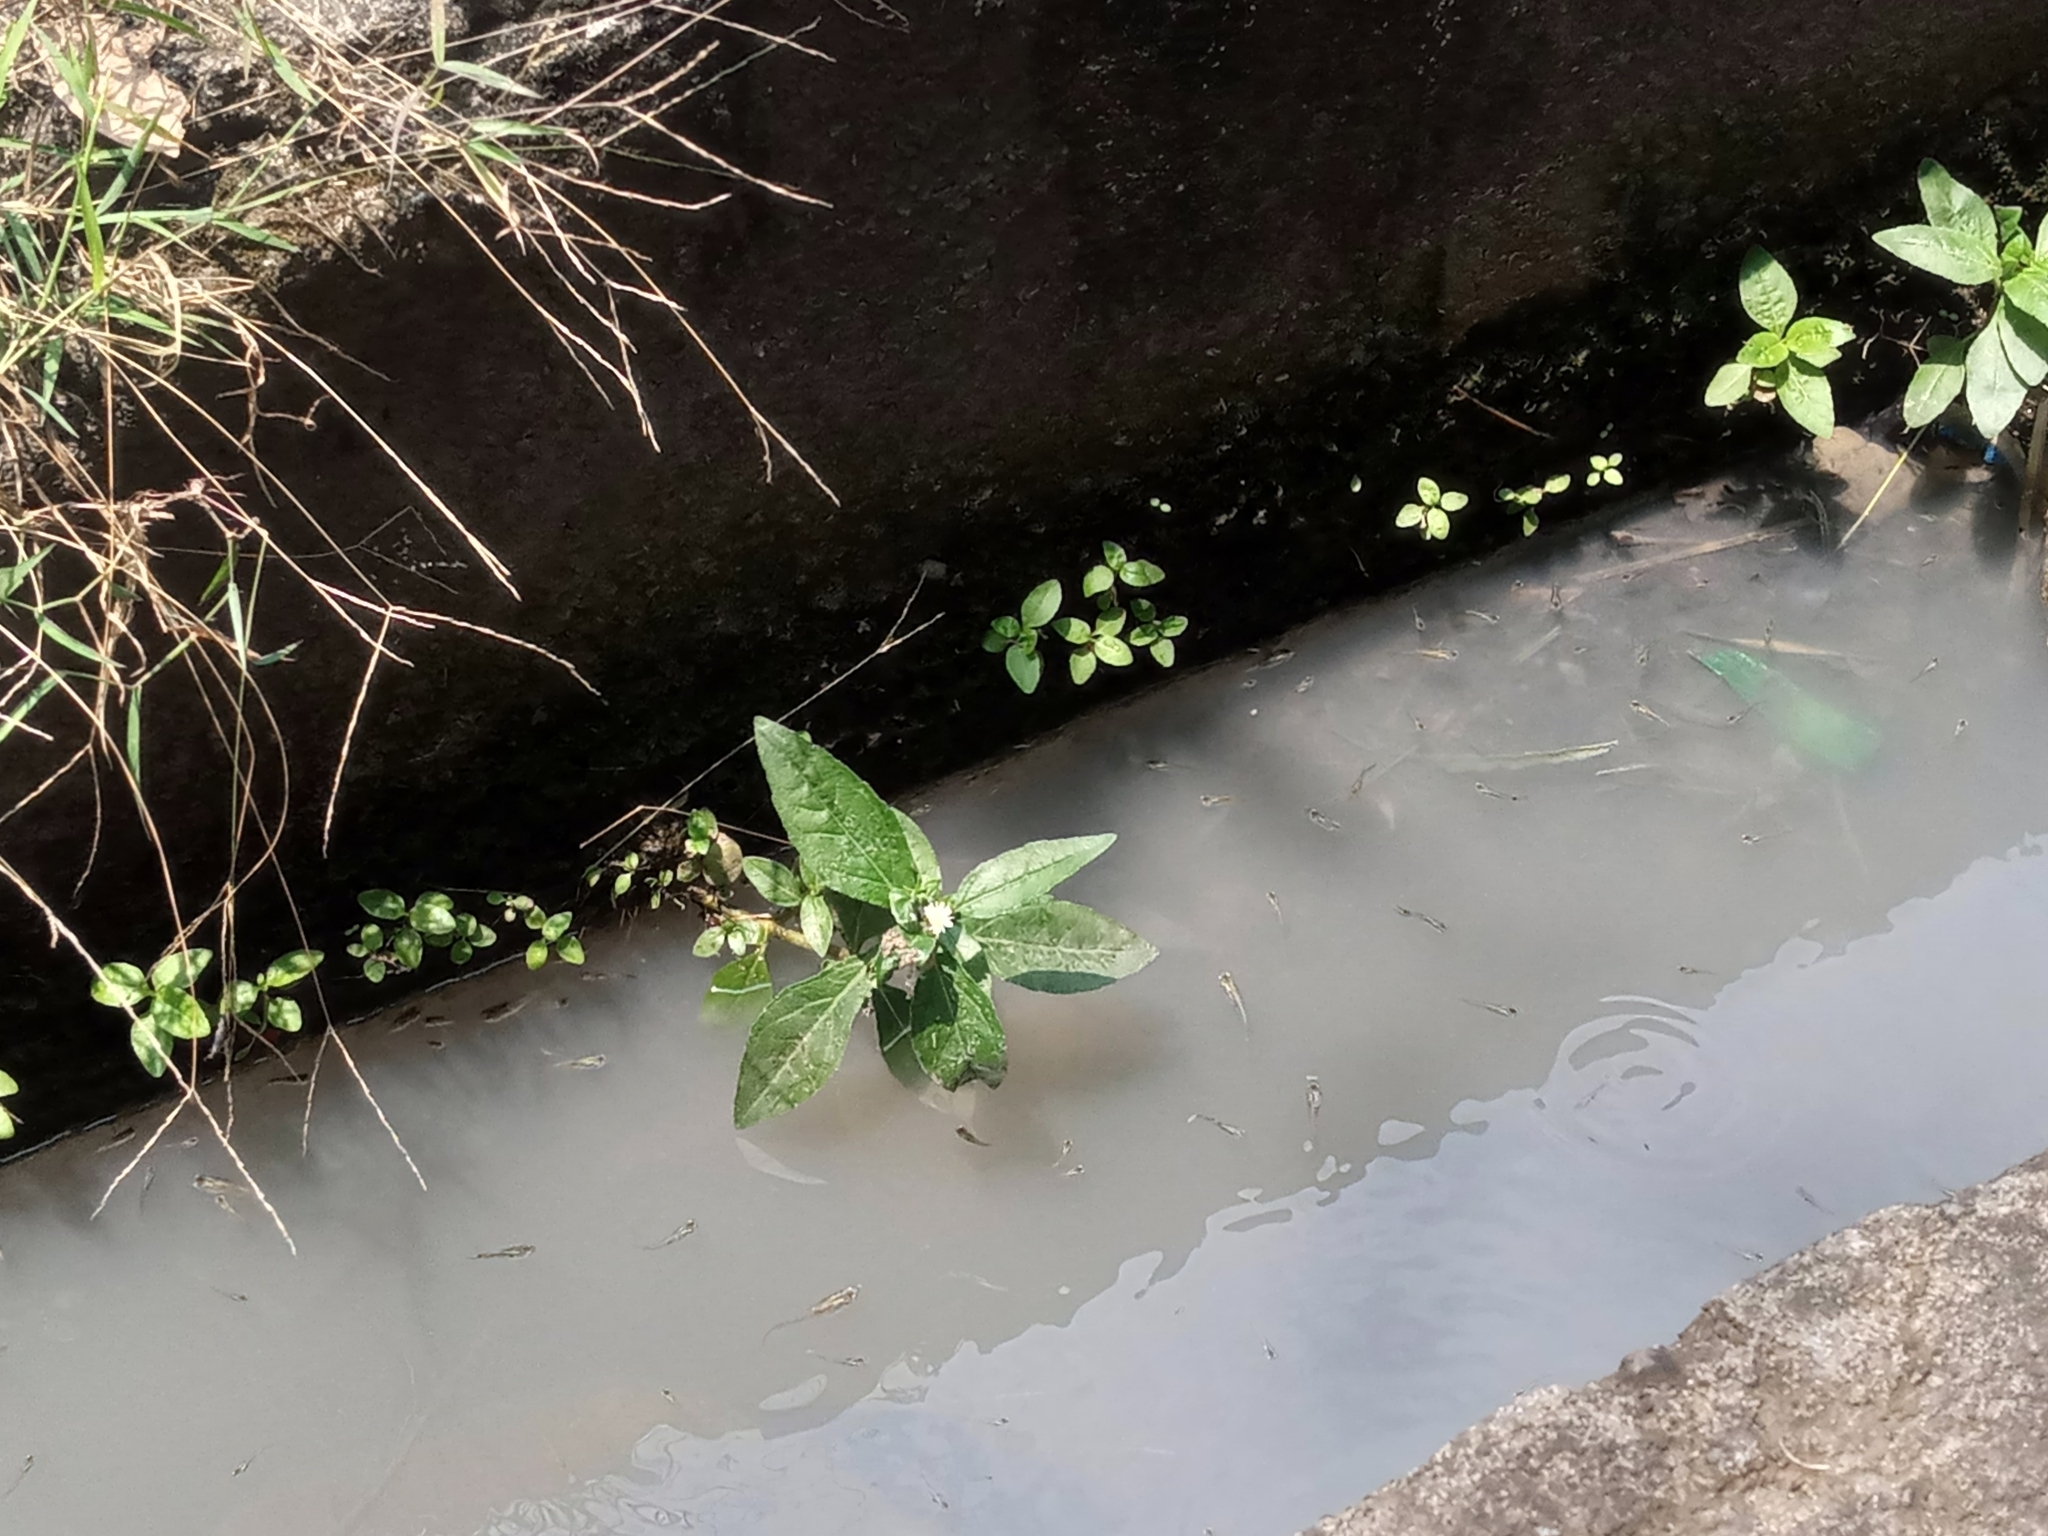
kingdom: Plantae
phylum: Tracheophyta
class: Magnoliopsida
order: Asterales
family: Asteraceae
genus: Eclipta
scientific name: Eclipta prostrata
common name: False daisy
